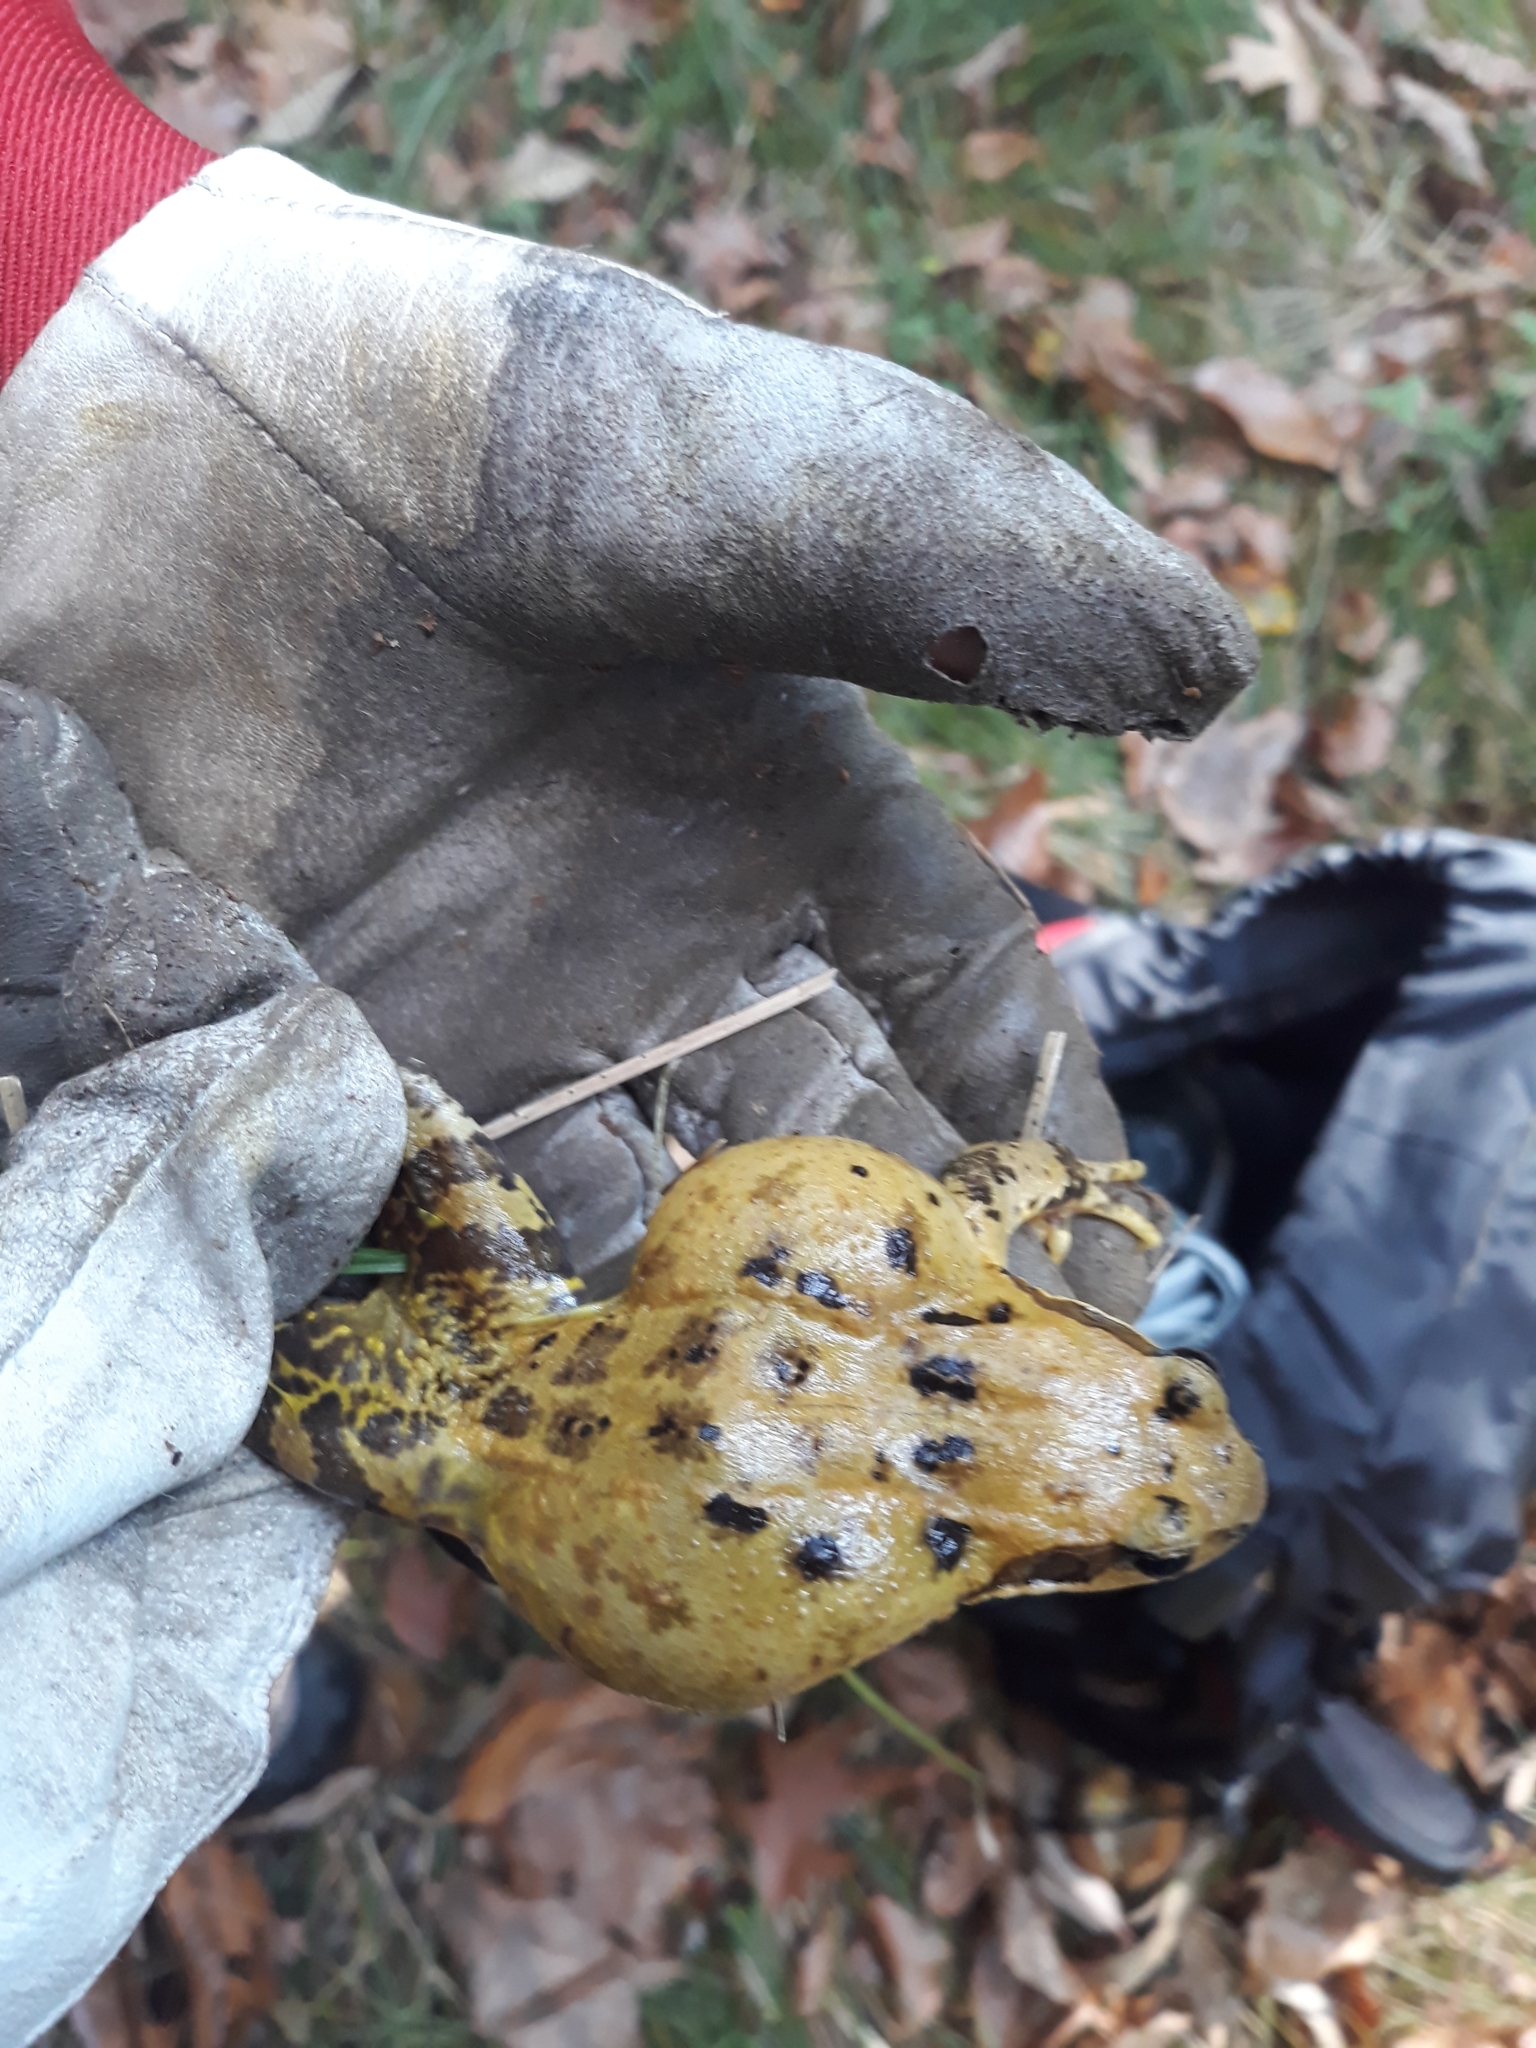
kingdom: Animalia
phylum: Chordata
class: Amphibia
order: Anura
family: Ranidae
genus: Rana
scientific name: Rana temporaria
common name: Common frog
